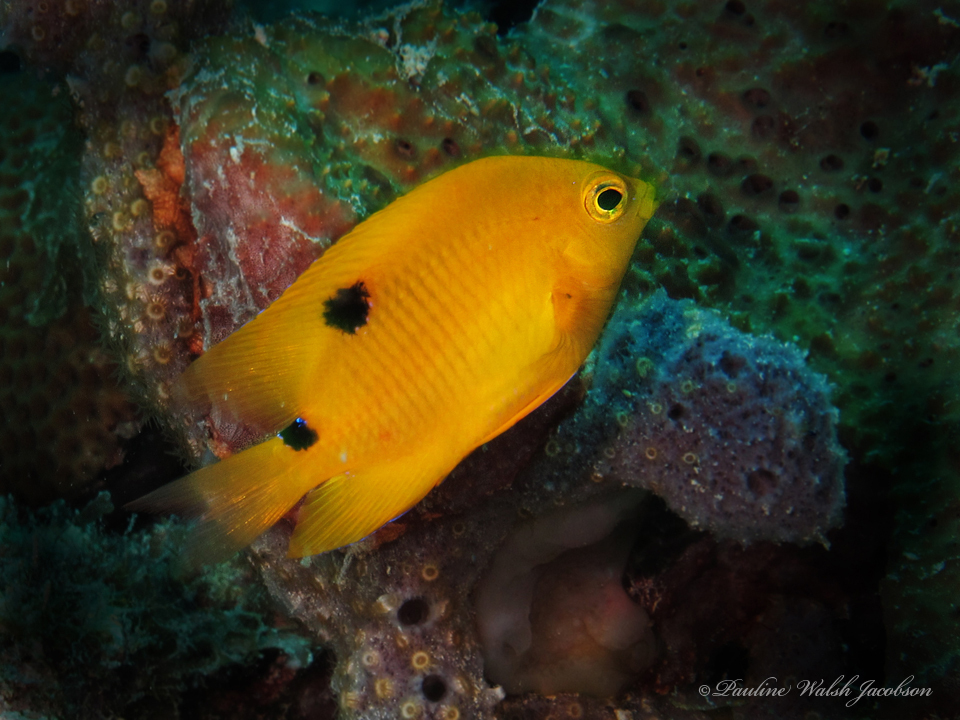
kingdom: Animalia
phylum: Chordata
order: Perciformes
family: Pomacentridae
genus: Stegastes
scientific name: Stegastes planifrons
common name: Threespot damselfish
